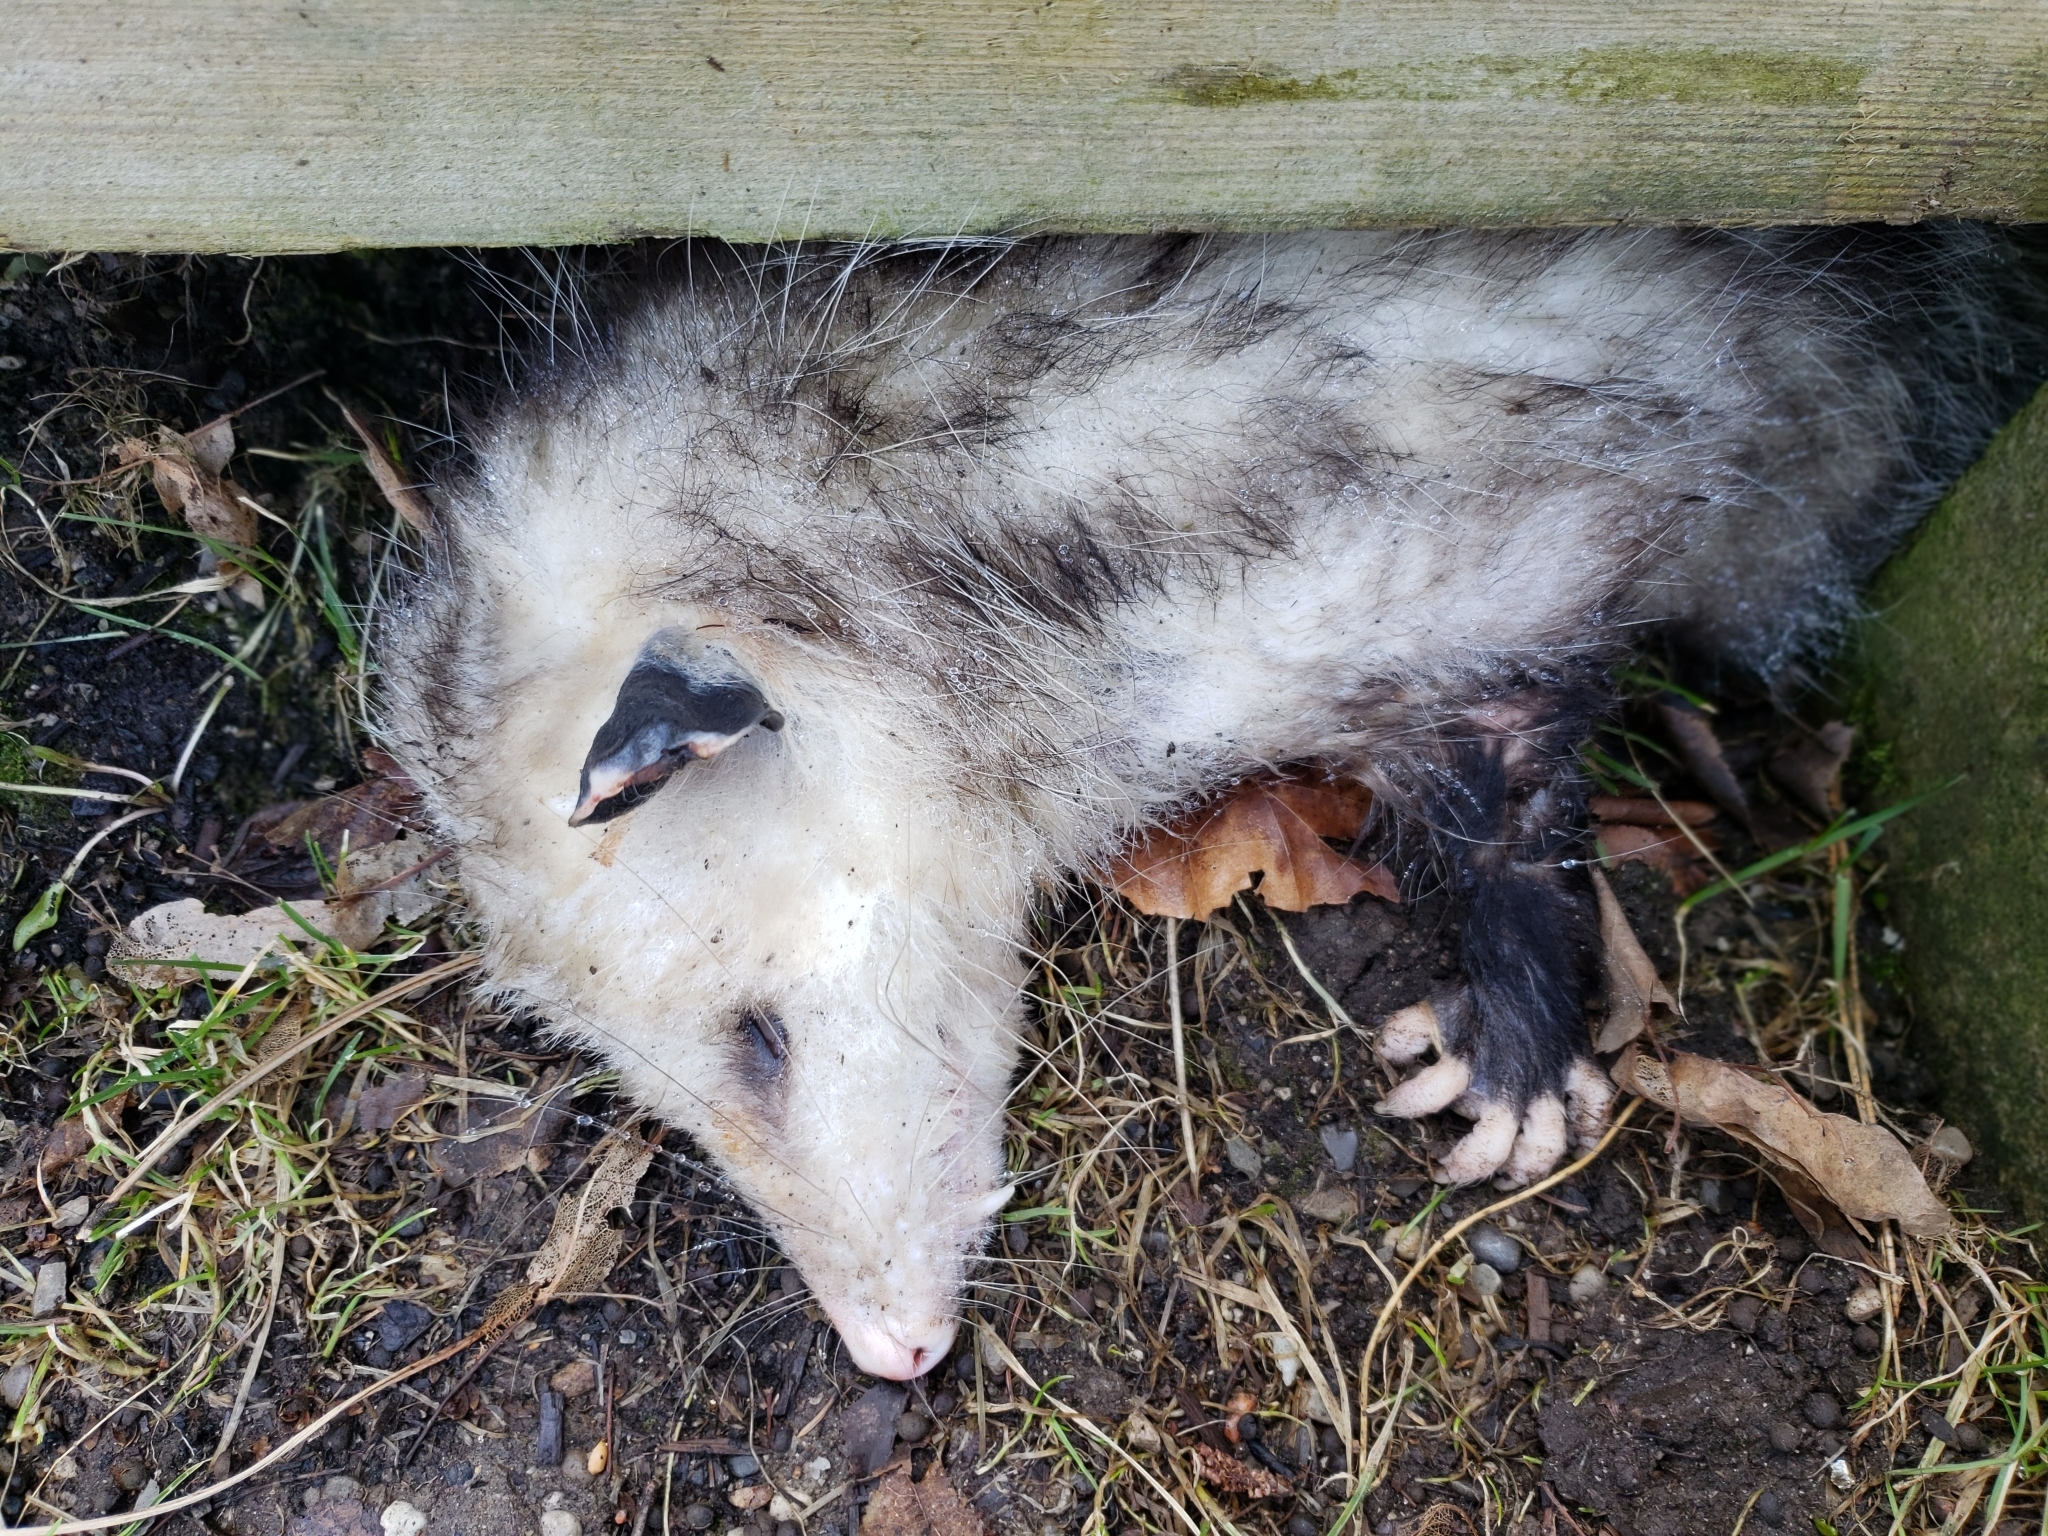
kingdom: Animalia
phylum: Chordata
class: Mammalia
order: Didelphimorphia
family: Didelphidae
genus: Didelphis
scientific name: Didelphis virginiana
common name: Virginia opossum
